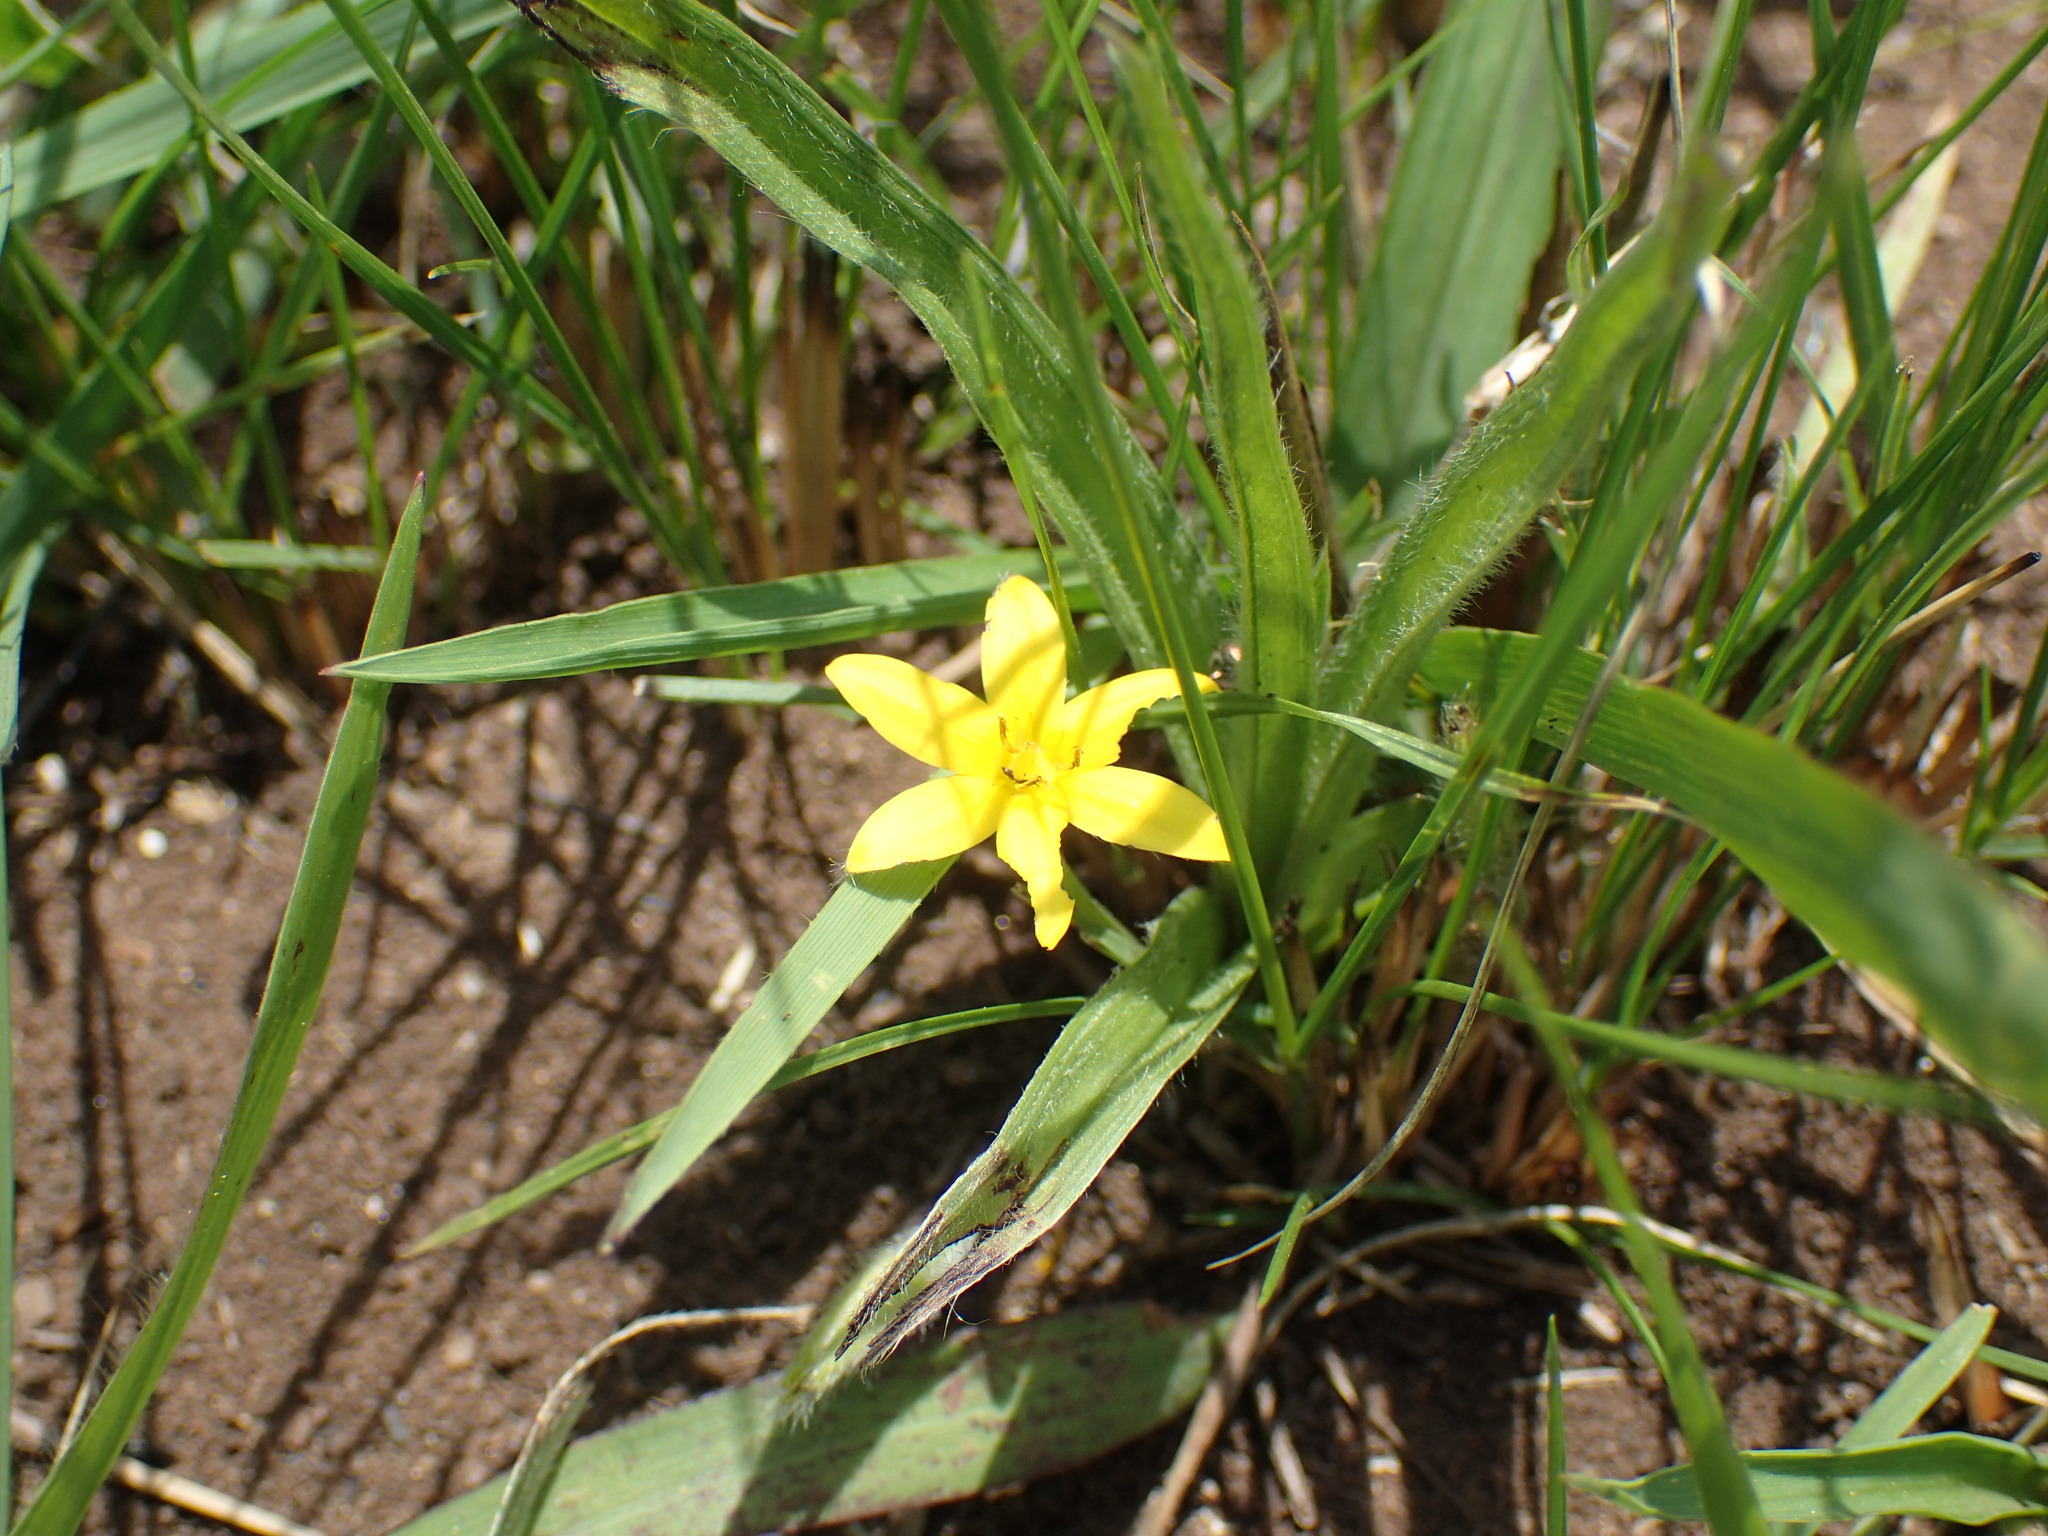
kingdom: Plantae
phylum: Tracheophyta
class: Liliopsida
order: Asparagales
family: Hypoxidaceae
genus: Hypoxis
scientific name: Hypoxis angustifolia
